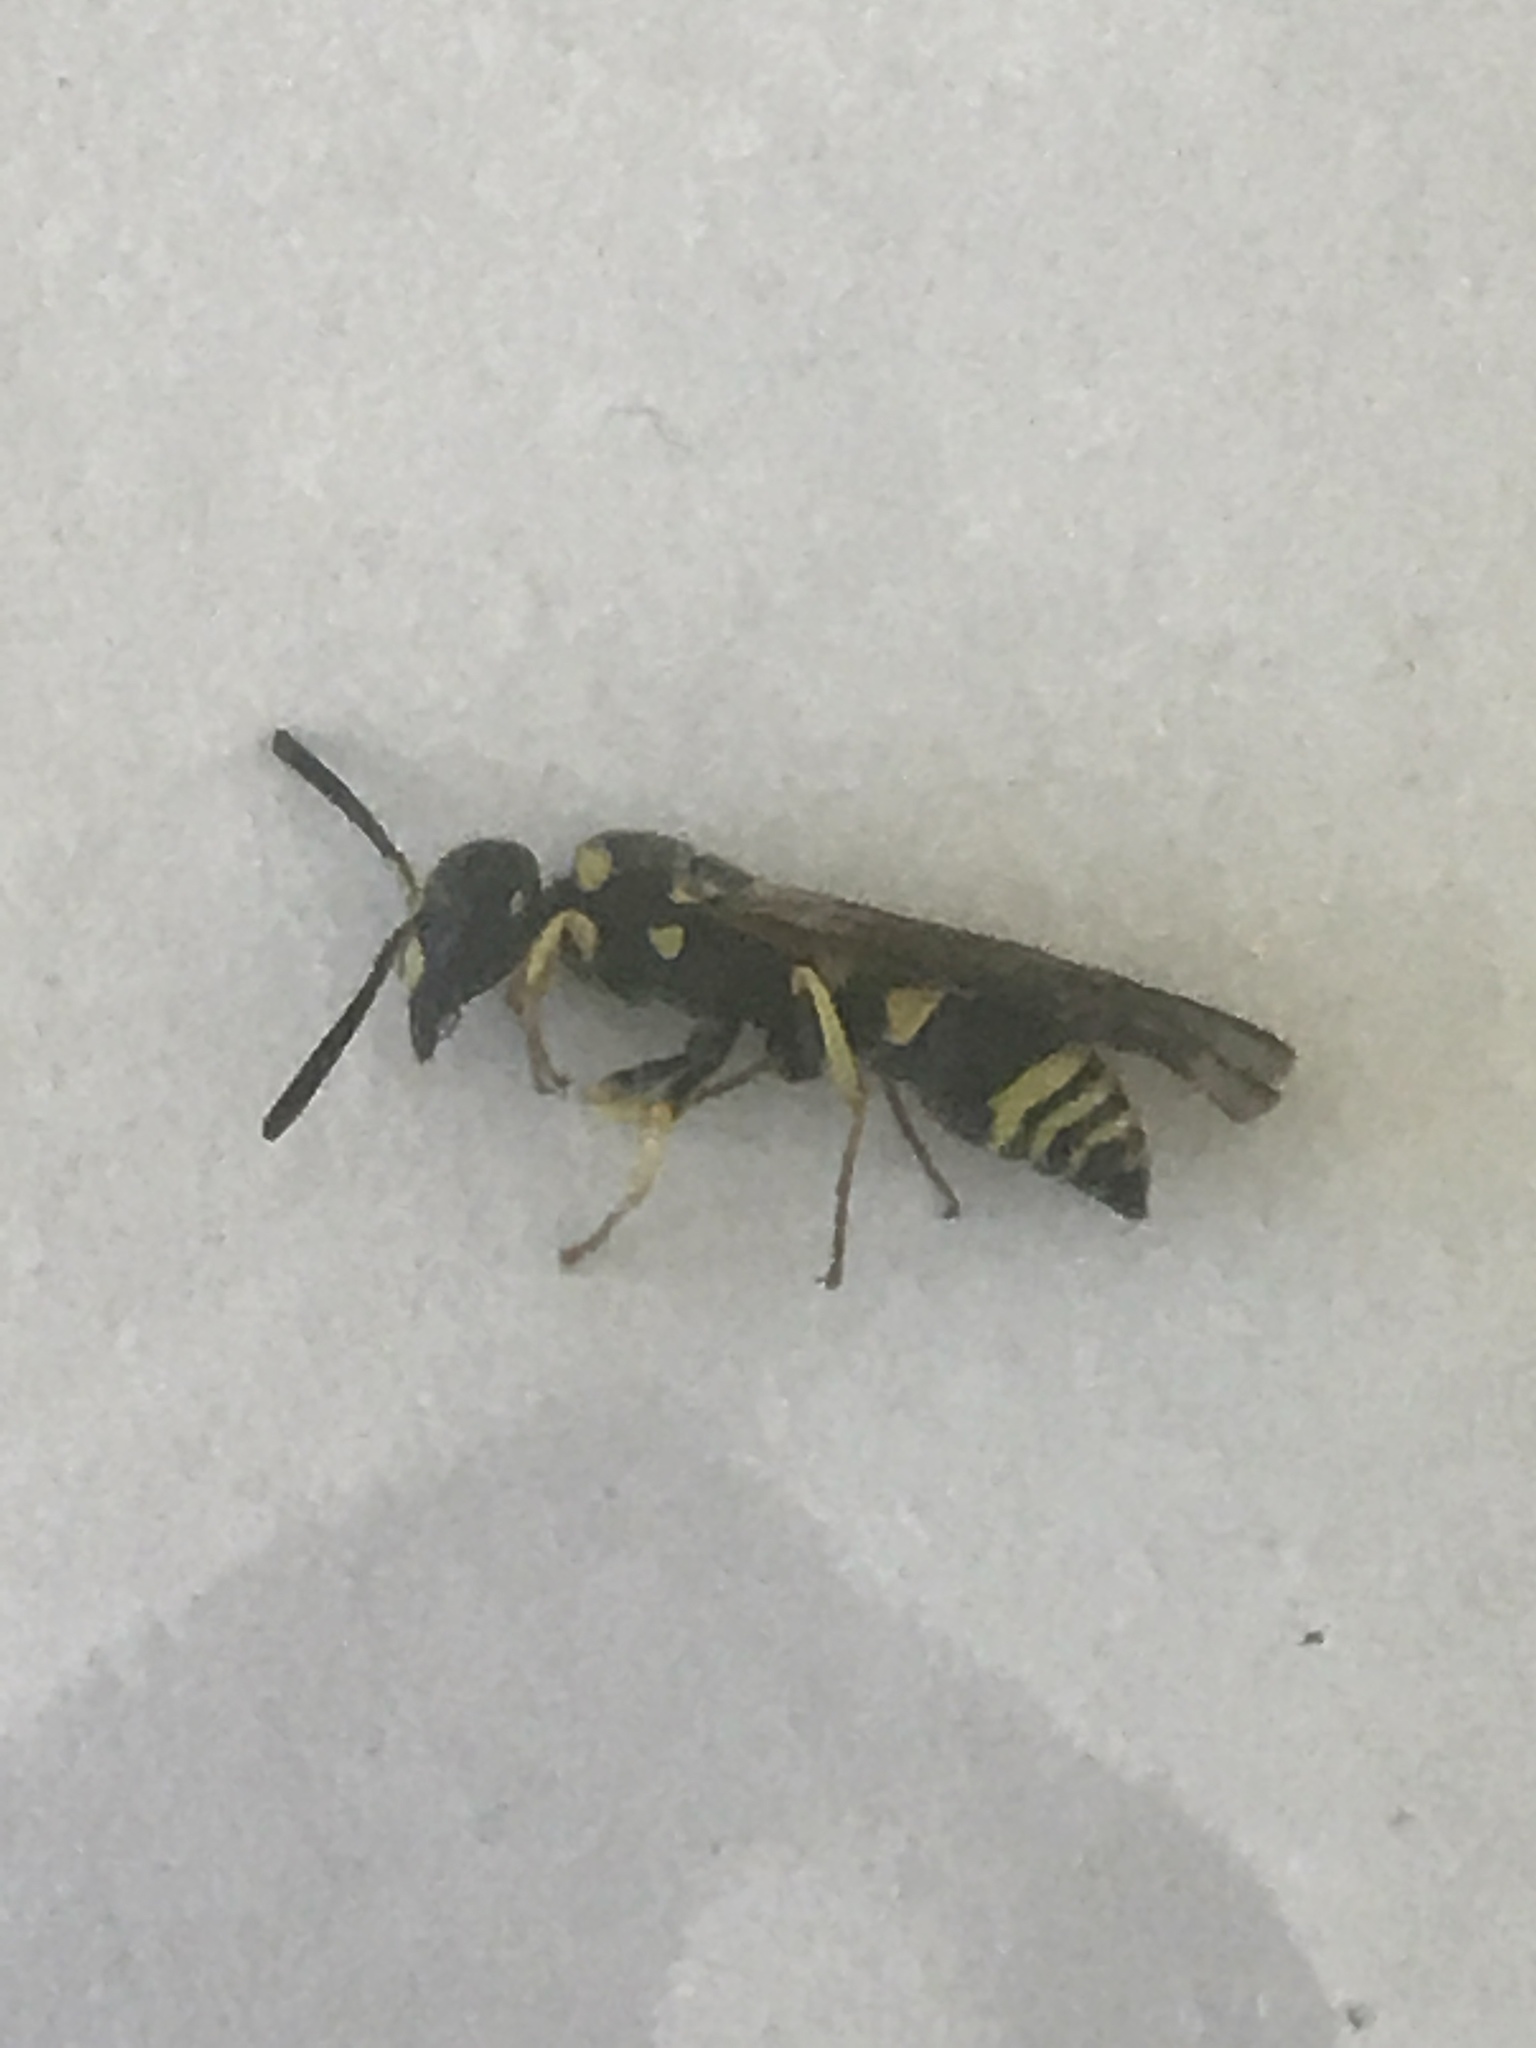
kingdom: Animalia
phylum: Arthropoda
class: Insecta
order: Hymenoptera
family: Vespidae
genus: Ancistrocerus
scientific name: Ancistrocerus
